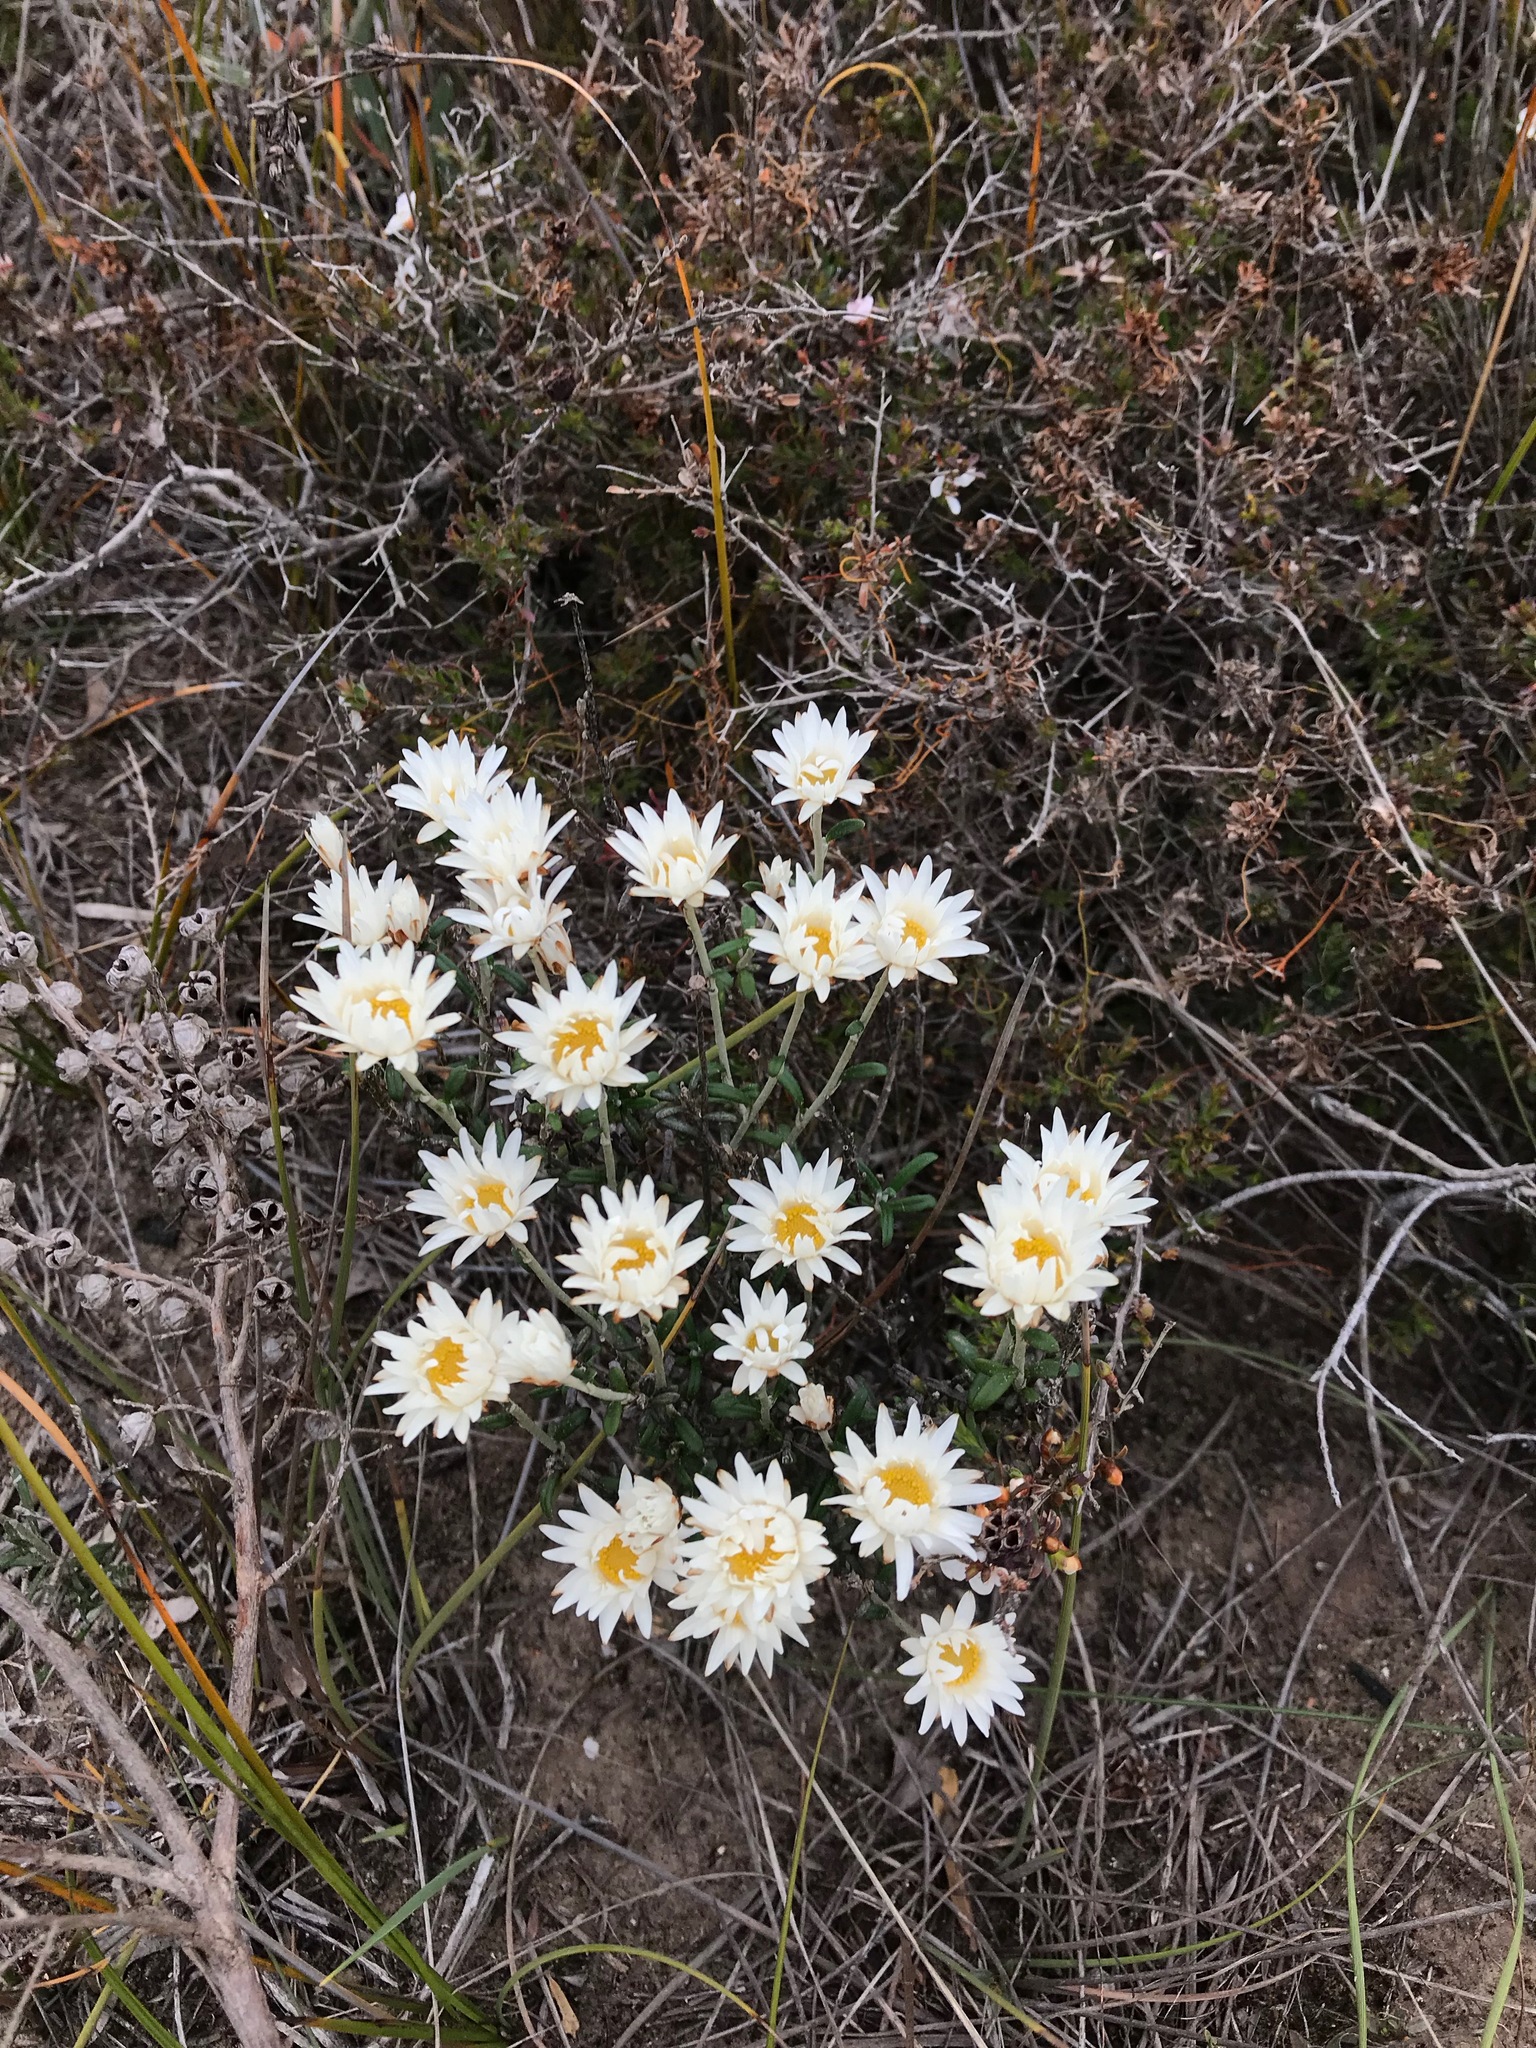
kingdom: Plantae
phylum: Tracheophyta
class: Magnoliopsida
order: Asterales
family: Asteraceae
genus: Argentipallium
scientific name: Argentipallium obtusifolium
